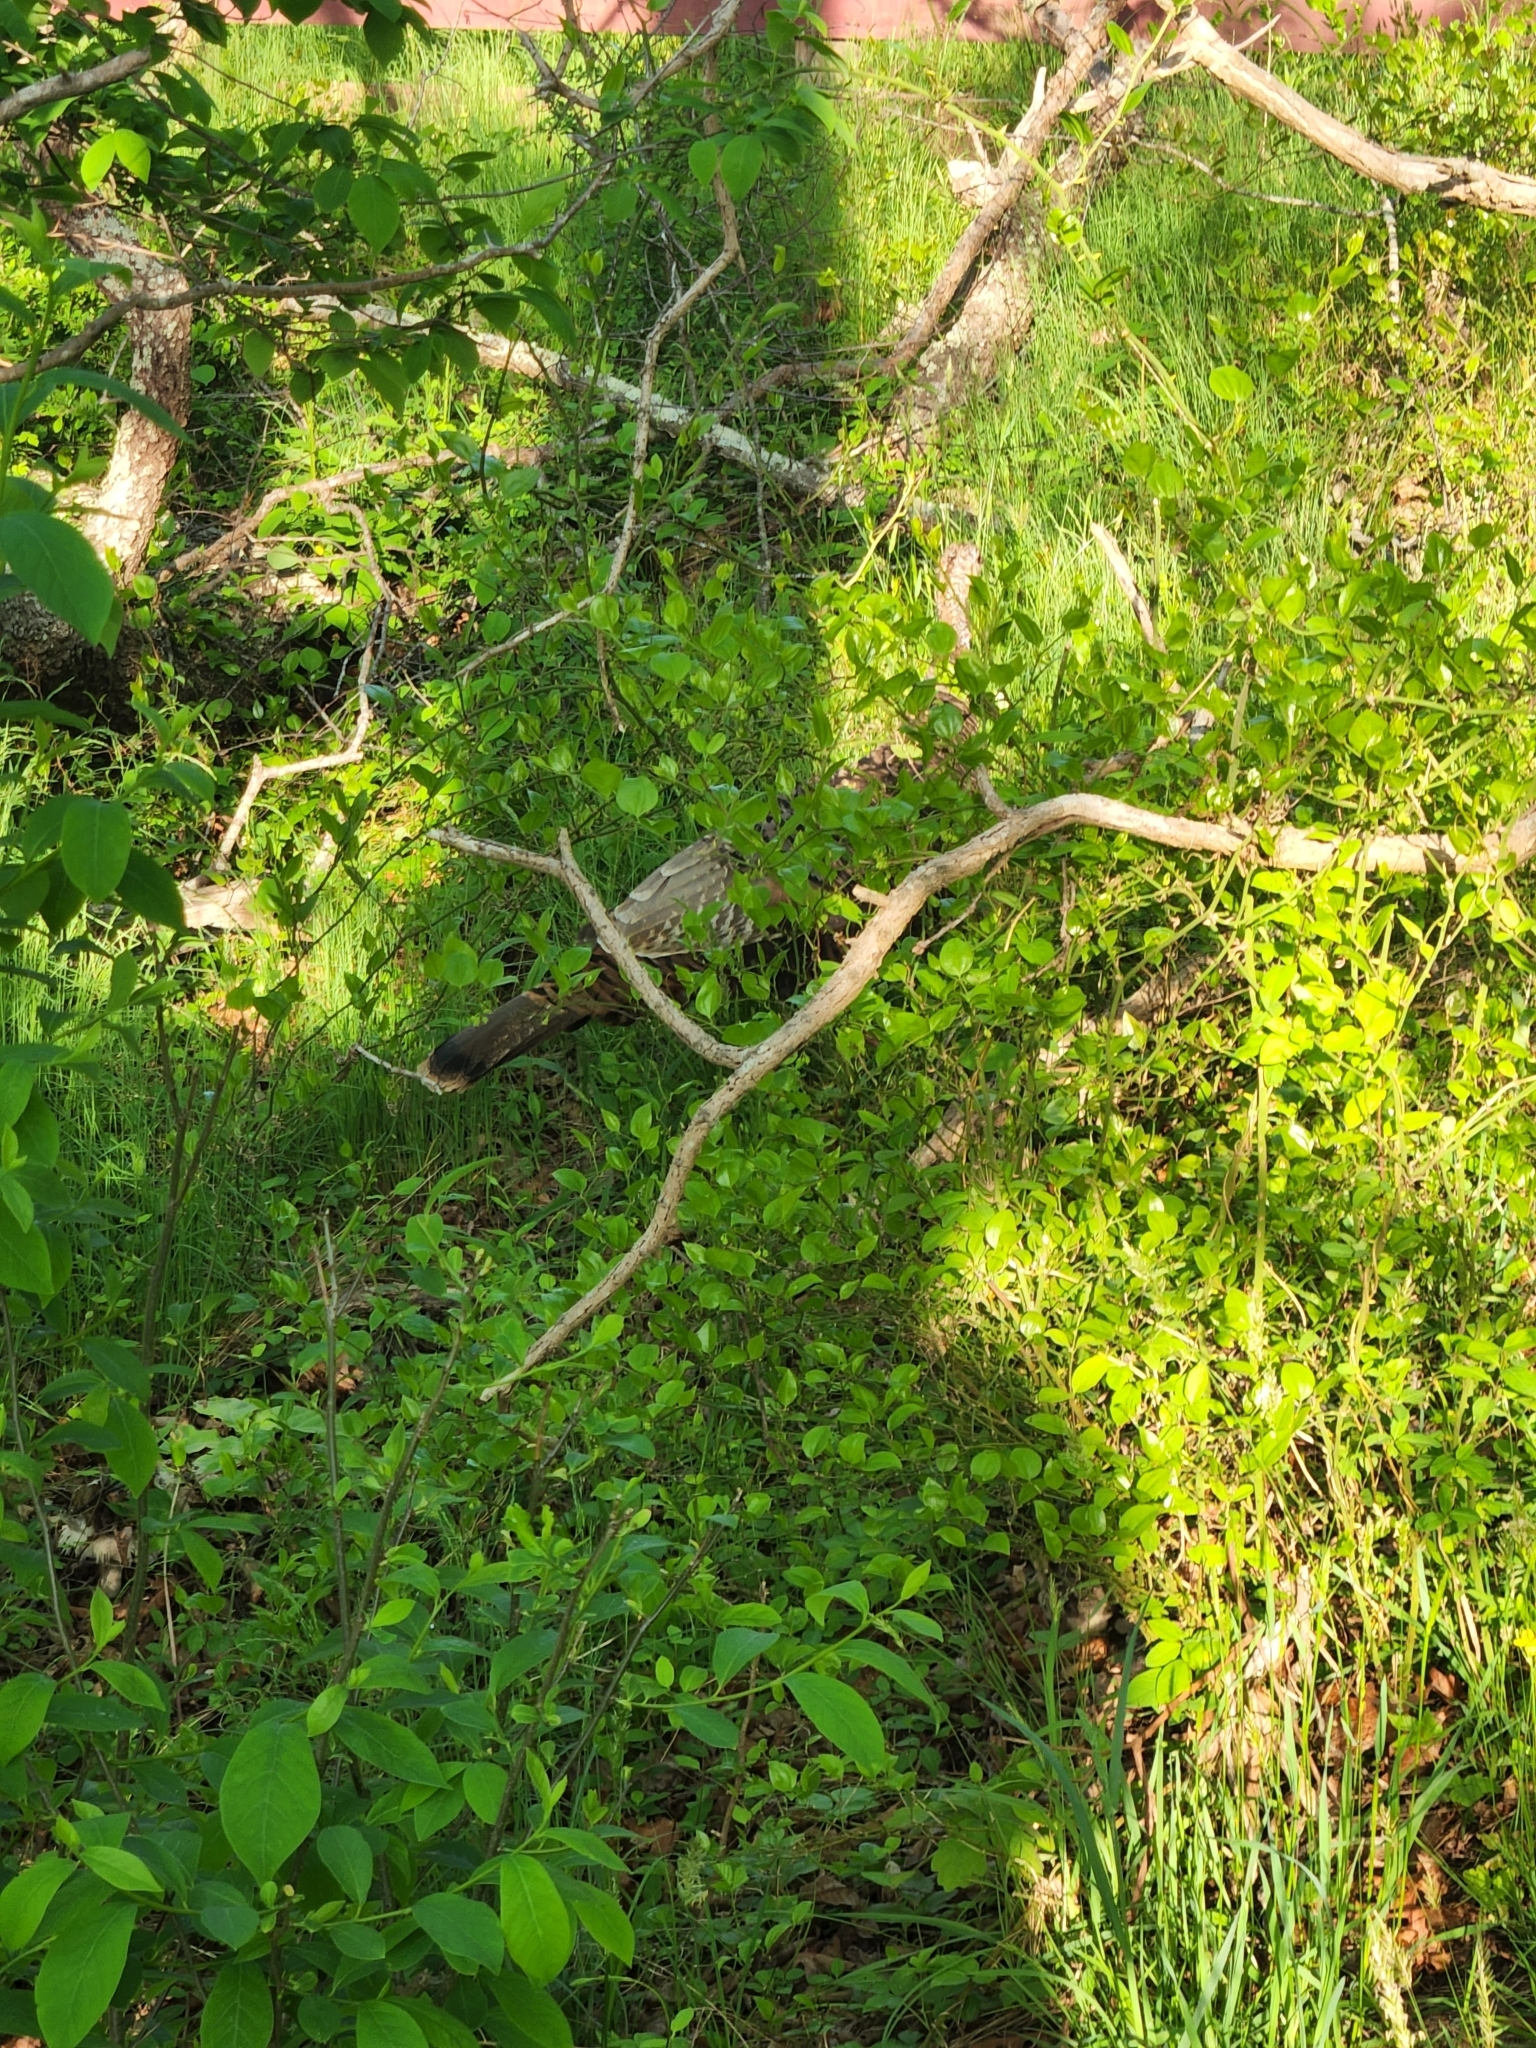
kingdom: Animalia
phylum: Chordata
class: Aves
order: Galliformes
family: Phasianidae
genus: Meleagris
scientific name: Meleagris gallopavo
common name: Wild turkey
